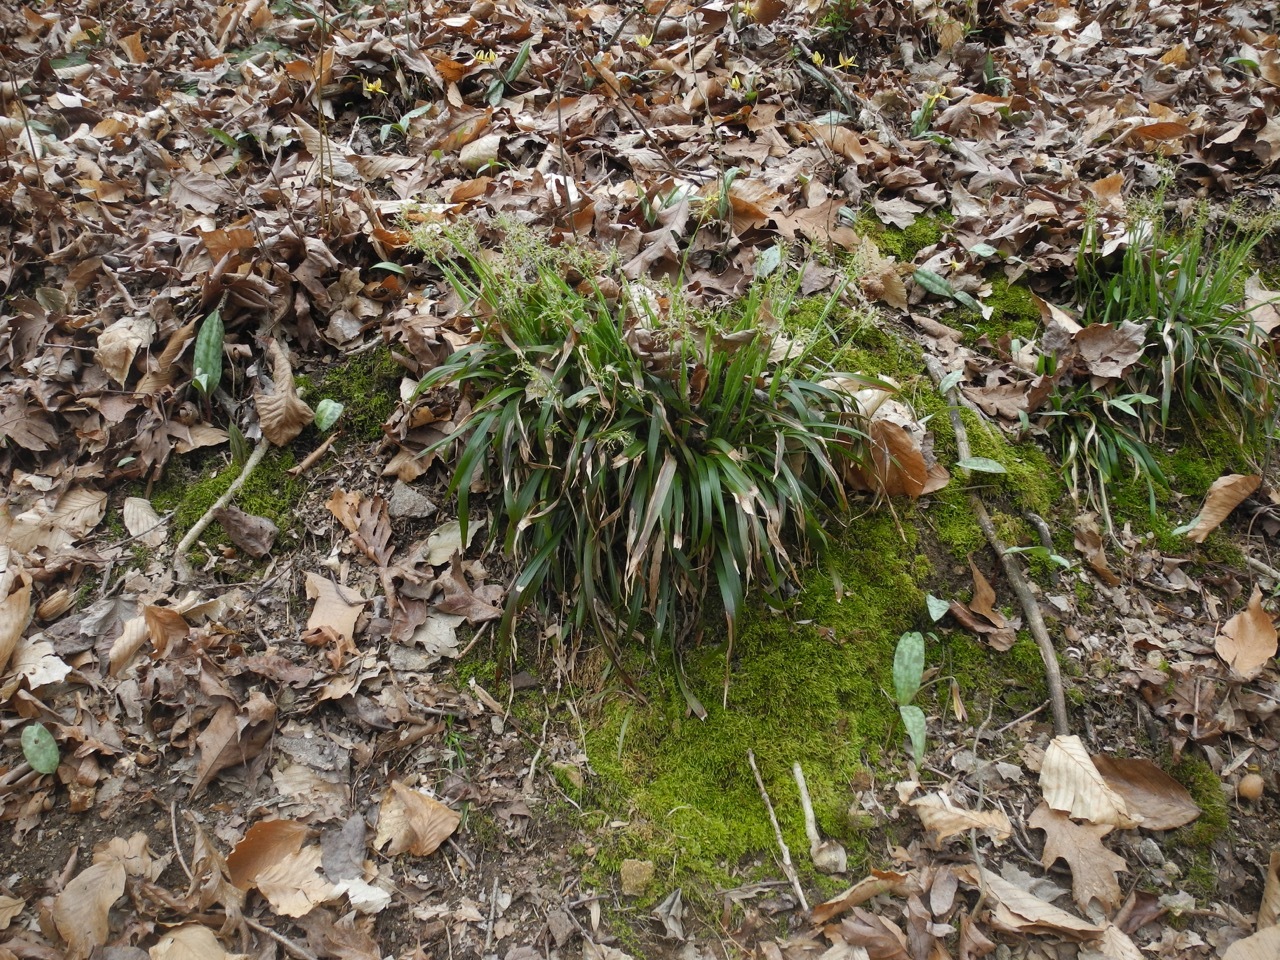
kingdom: Plantae
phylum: Tracheophyta
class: Liliopsida
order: Poales
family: Juncaceae
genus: Luzula
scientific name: Luzula acuminata
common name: Hairy woodrush
